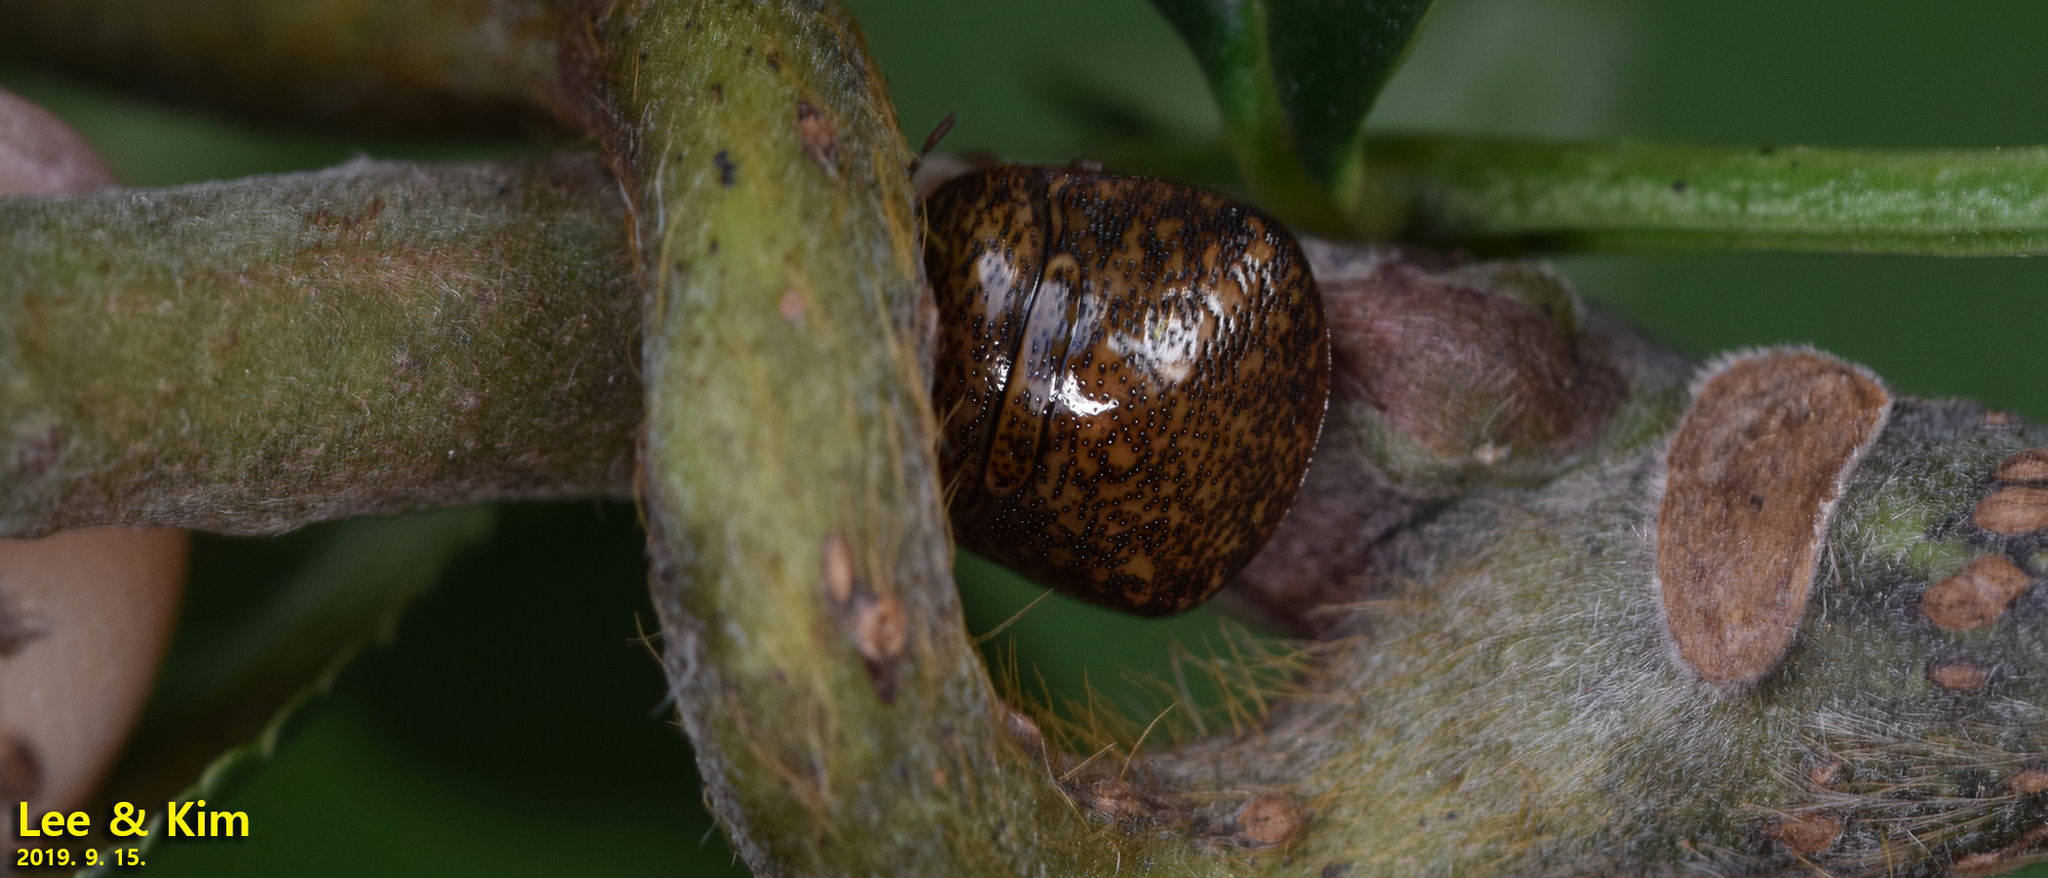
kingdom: Animalia
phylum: Arthropoda
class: Insecta
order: Hemiptera
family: Plataspidae
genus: Megacopta
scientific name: Megacopta cribraria
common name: Bean plataspid
